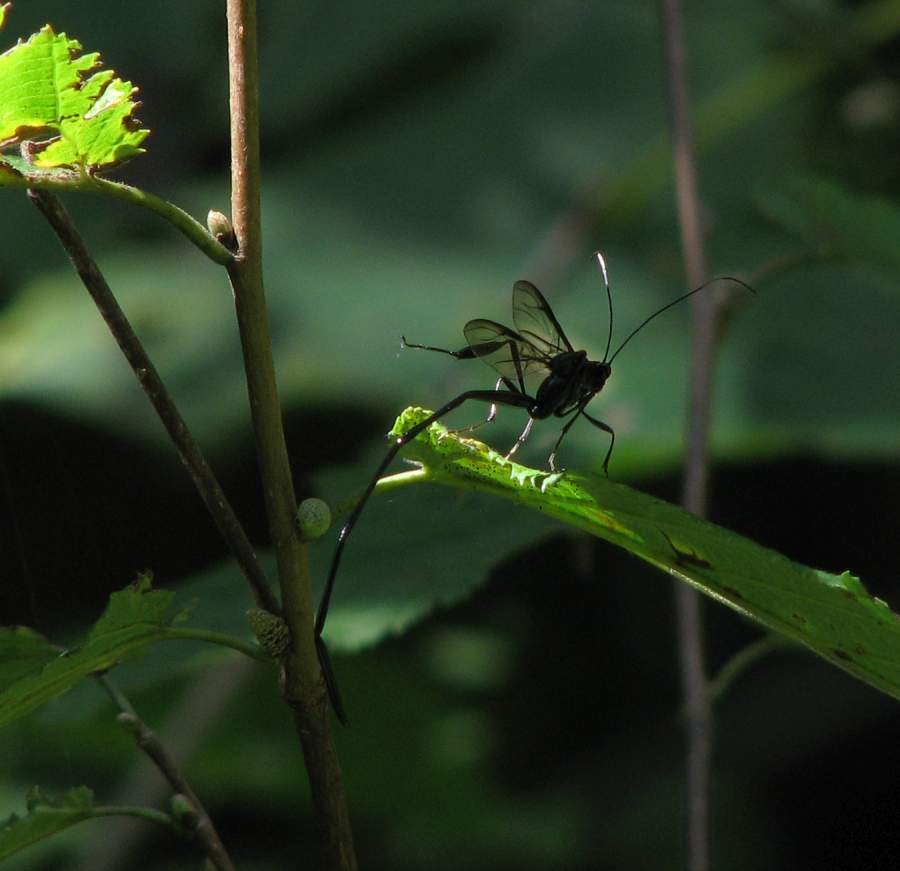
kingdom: Animalia
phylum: Arthropoda
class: Insecta
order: Hymenoptera
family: Pelecinidae
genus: Pelecinus
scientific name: Pelecinus polyturator
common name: American pelecinid wasp
